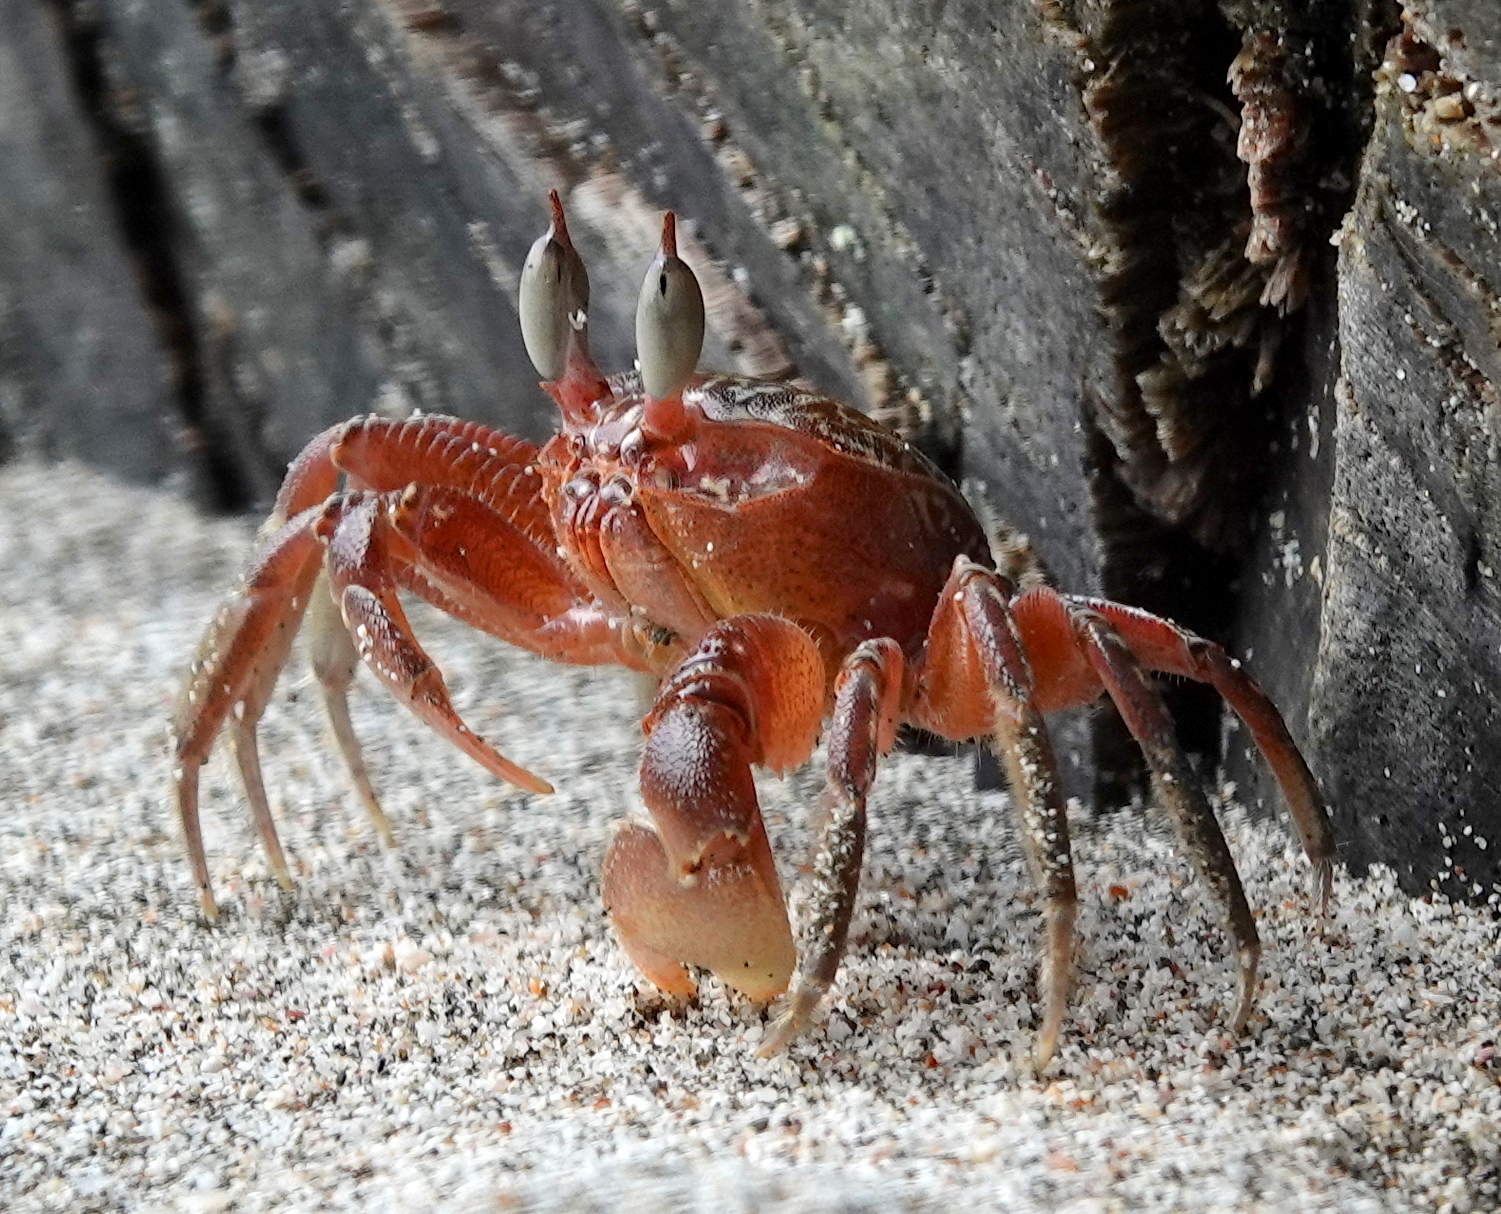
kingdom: Animalia
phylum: Arthropoda
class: Malacostraca
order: Decapoda
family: Ocypodidae
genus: Ocypode
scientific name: Ocypode gaudichaudii
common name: Pacific ghost crab
